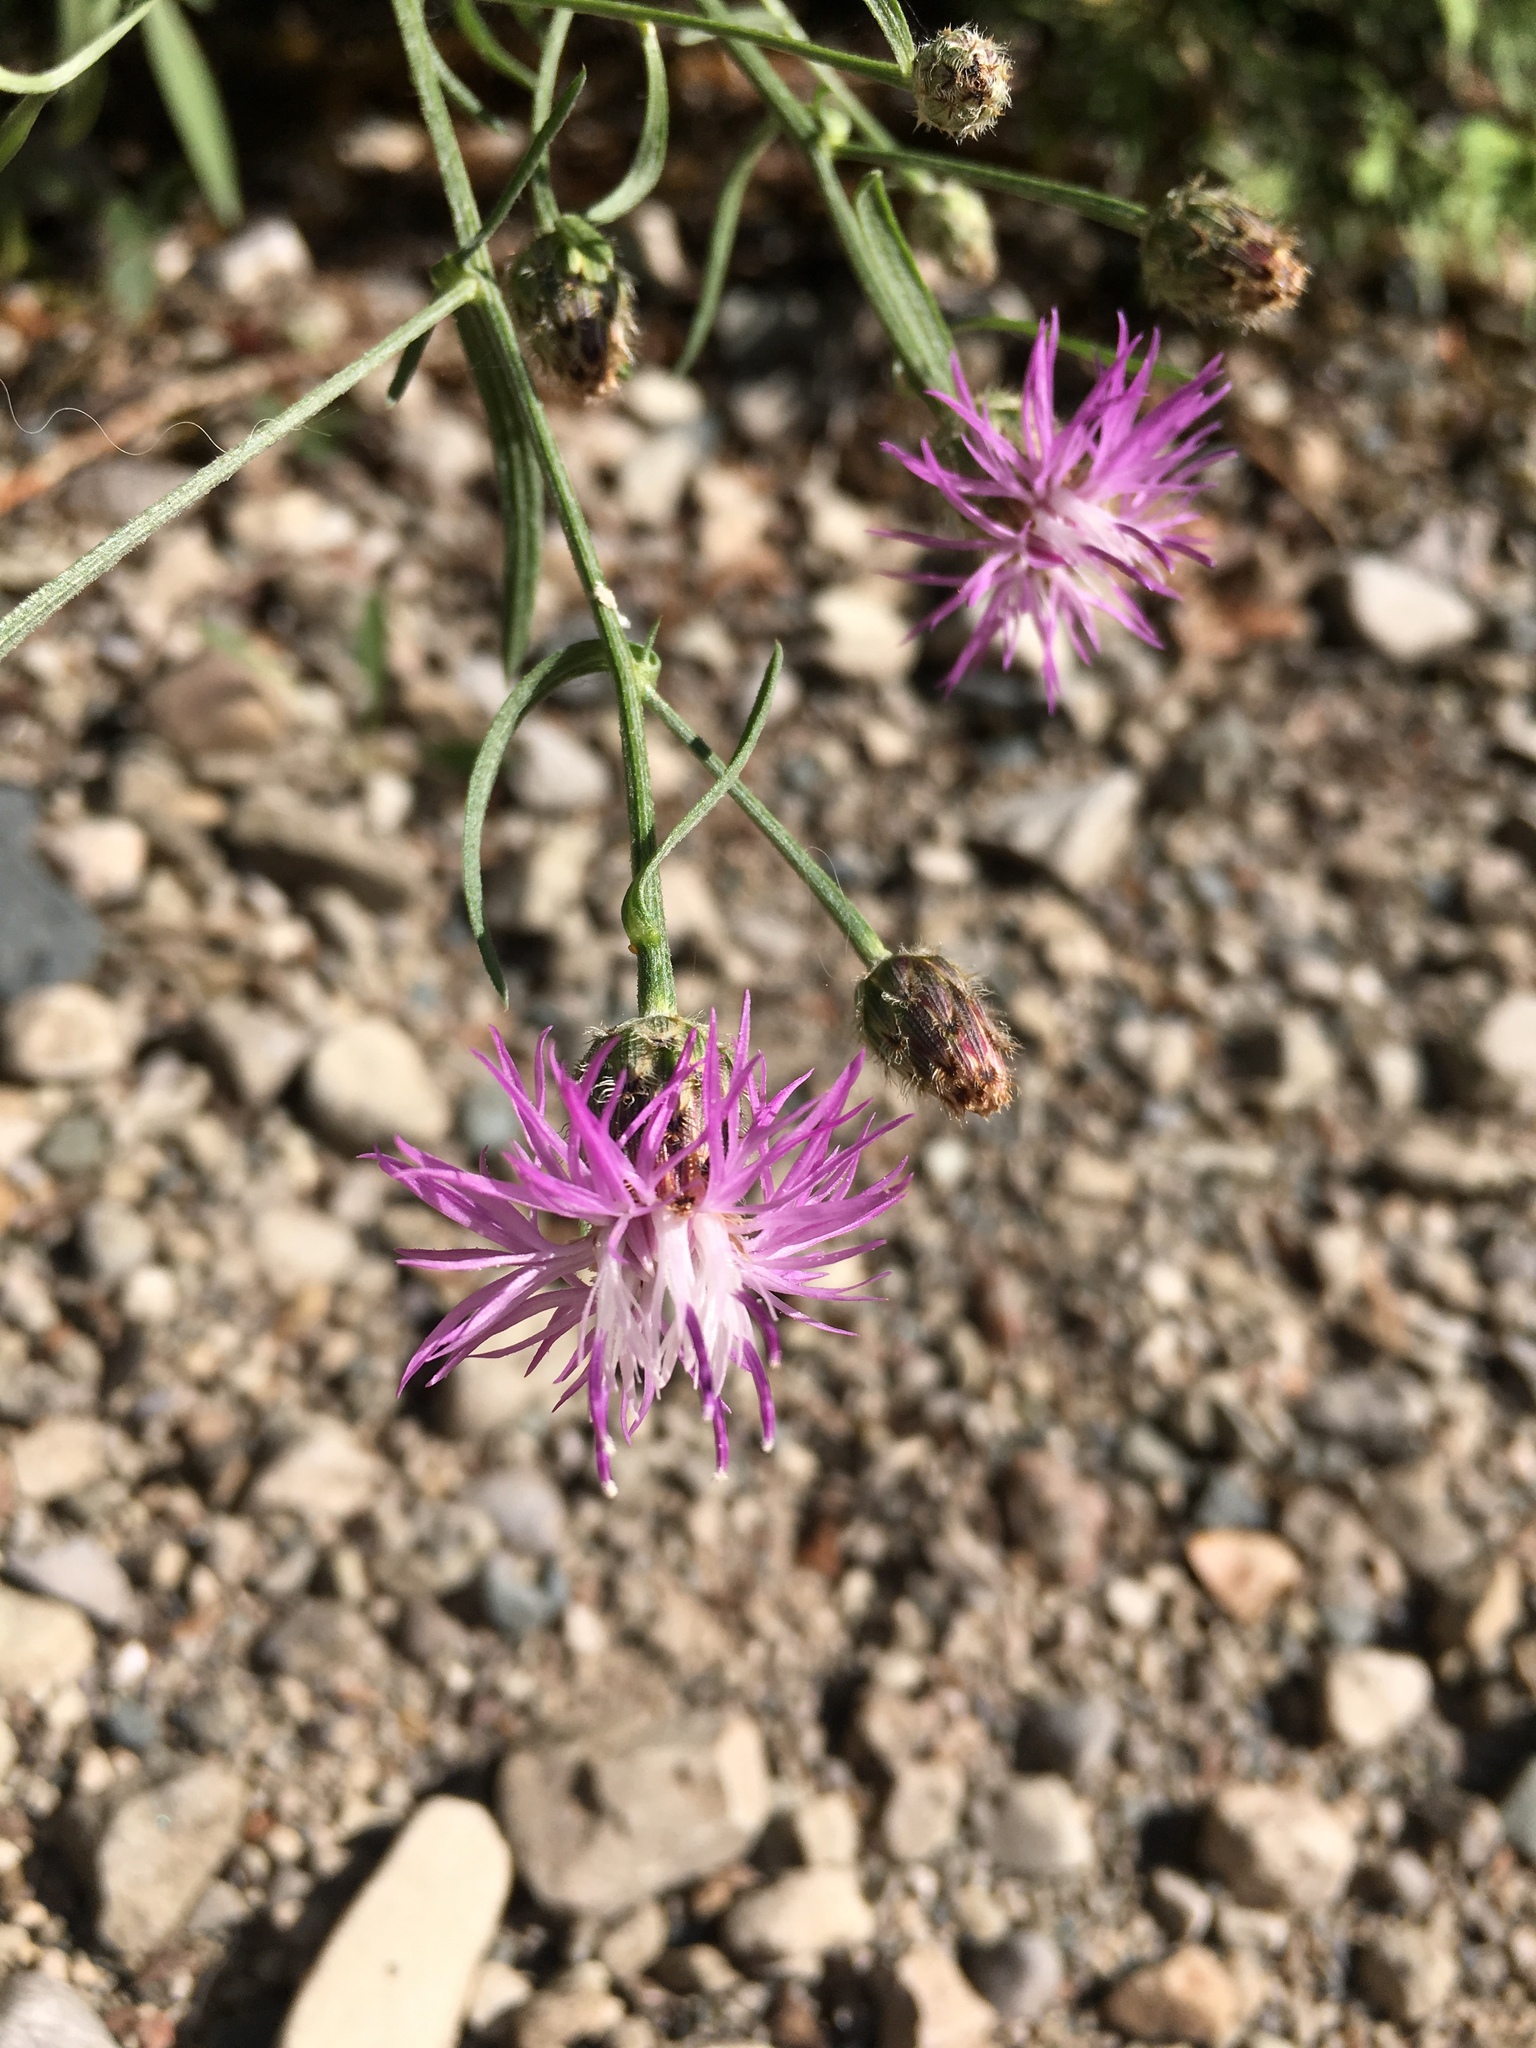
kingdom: Plantae
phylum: Tracheophyta
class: Magnoliopsida
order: Asterales
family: Asteraceae
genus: Centaurea
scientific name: Centaurea stoebe
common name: Spotted knapweed
